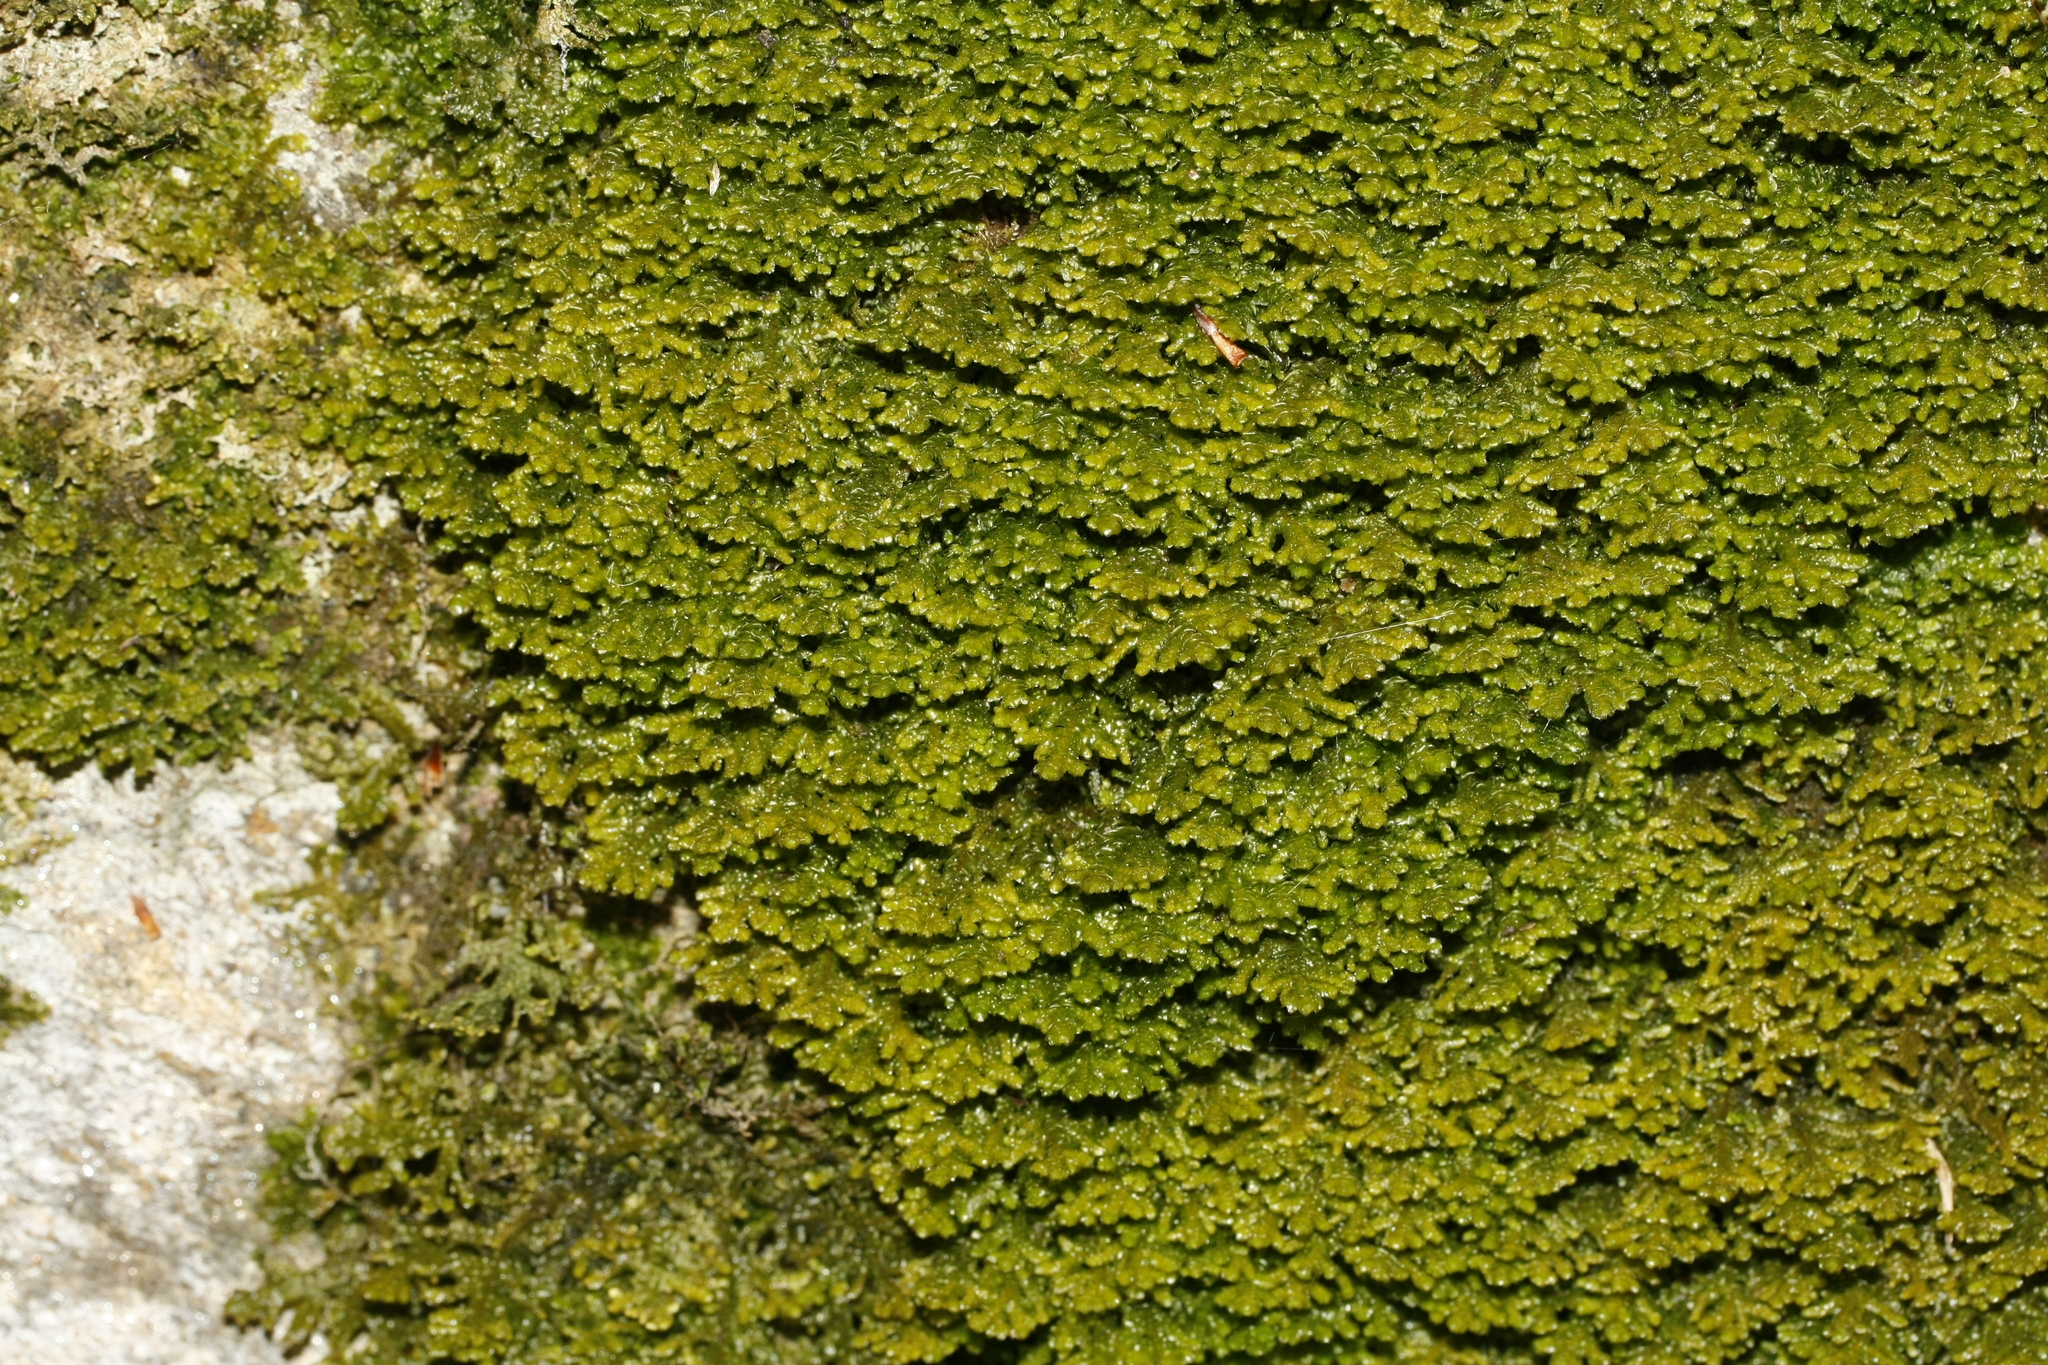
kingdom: Plantae
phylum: Marchantiophyta
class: Jungermanniopsida
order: Porellales
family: Porellaceae
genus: Porella
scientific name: Porella platyphylla
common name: Wall scalewort
